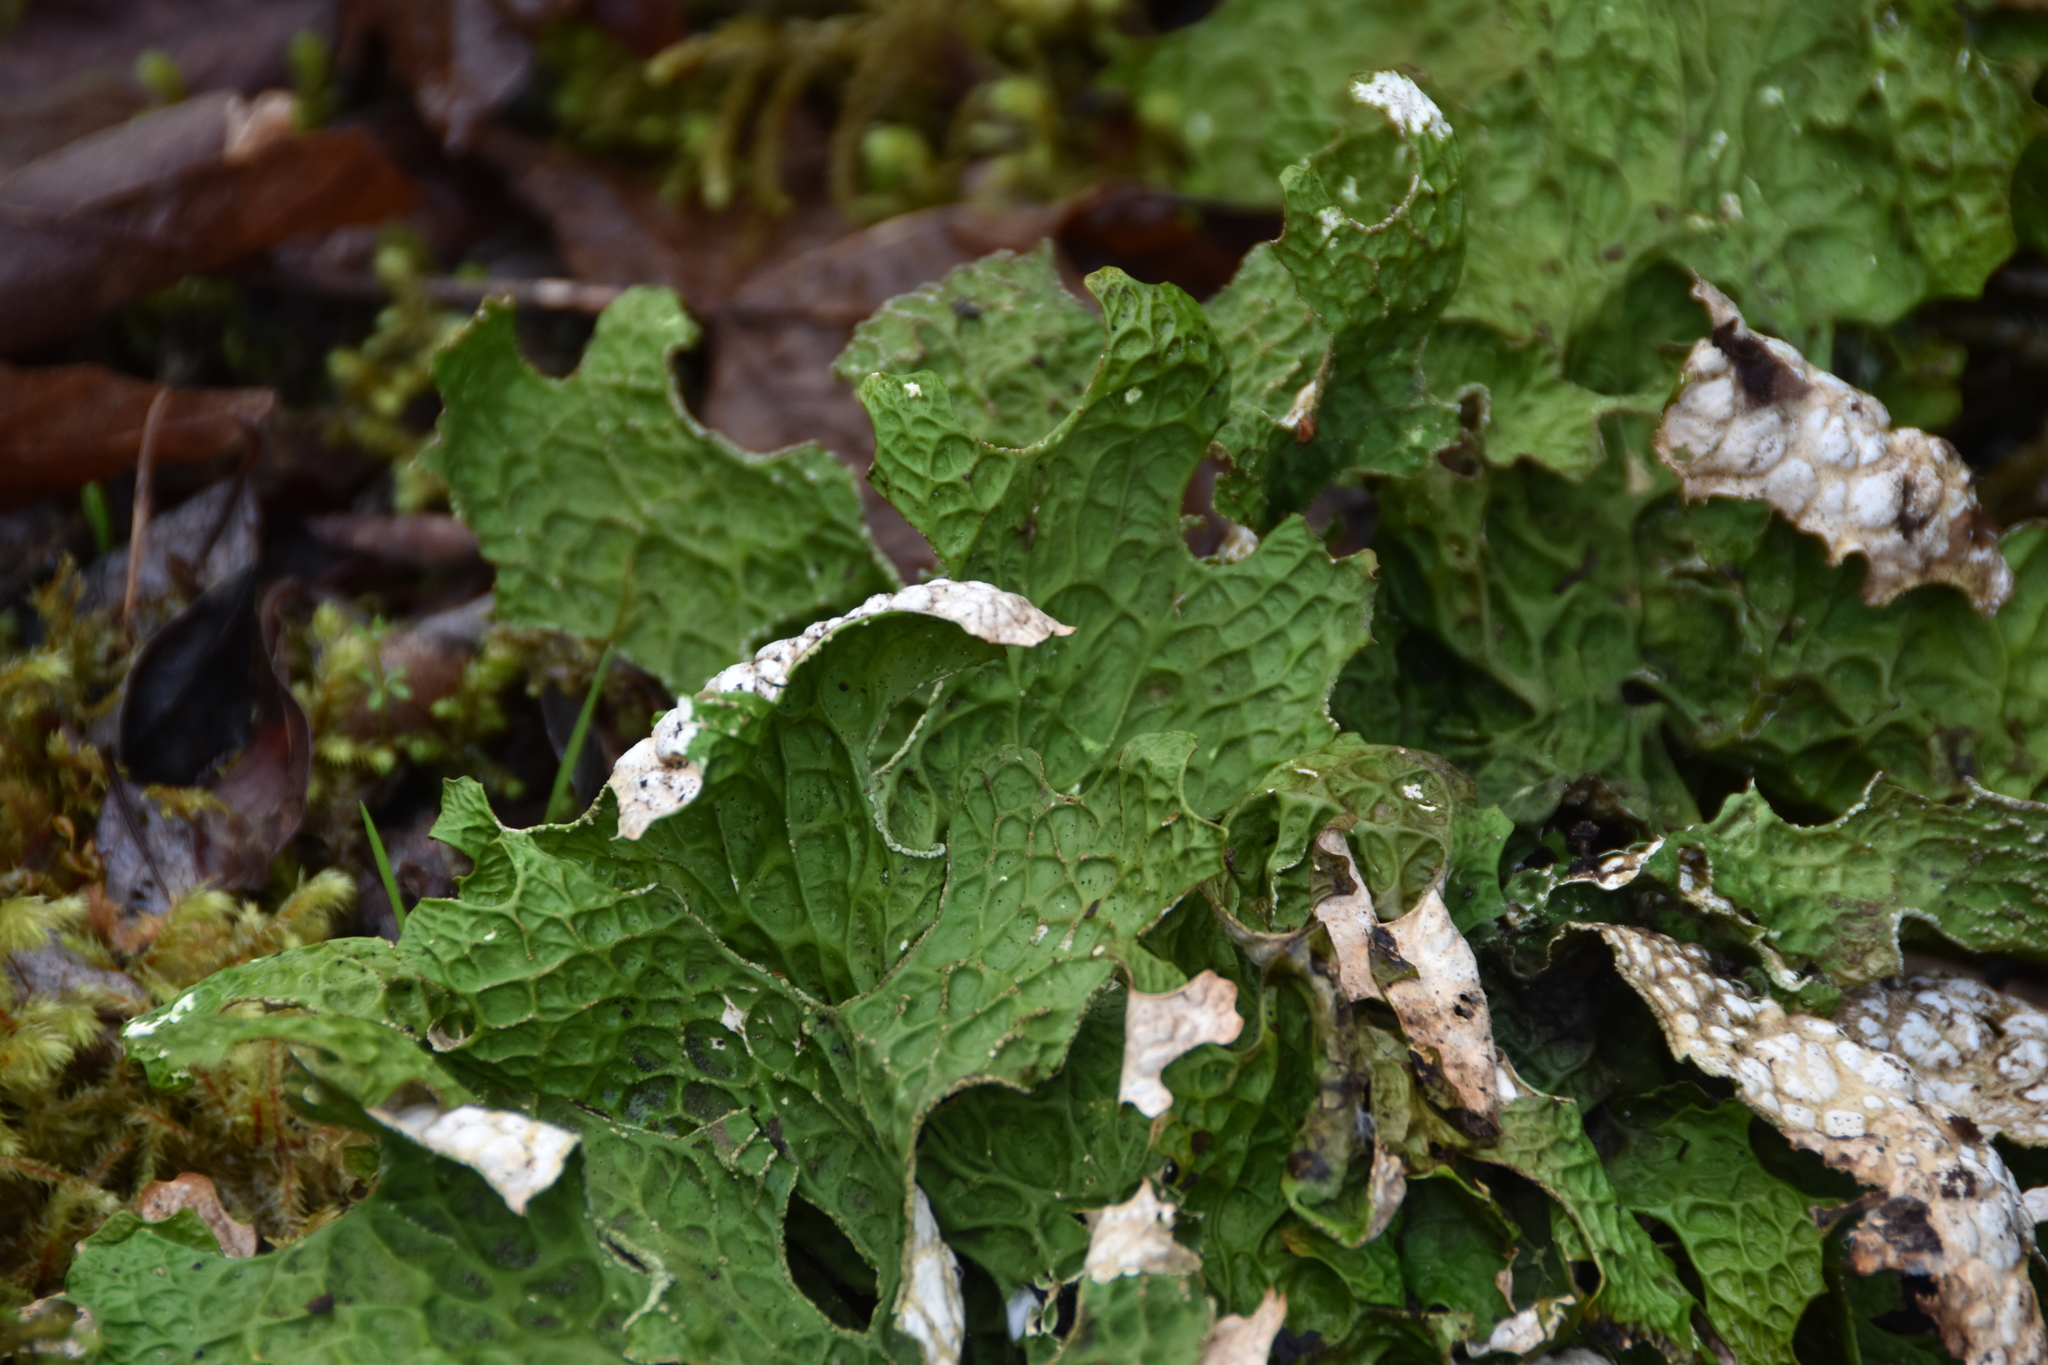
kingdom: Fungi
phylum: Ascomycota
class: Lecanoromycetes
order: Peltigerales
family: Lobariaceae
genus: Lobaria
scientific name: Lobaria pulmonaria
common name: Lungwort
